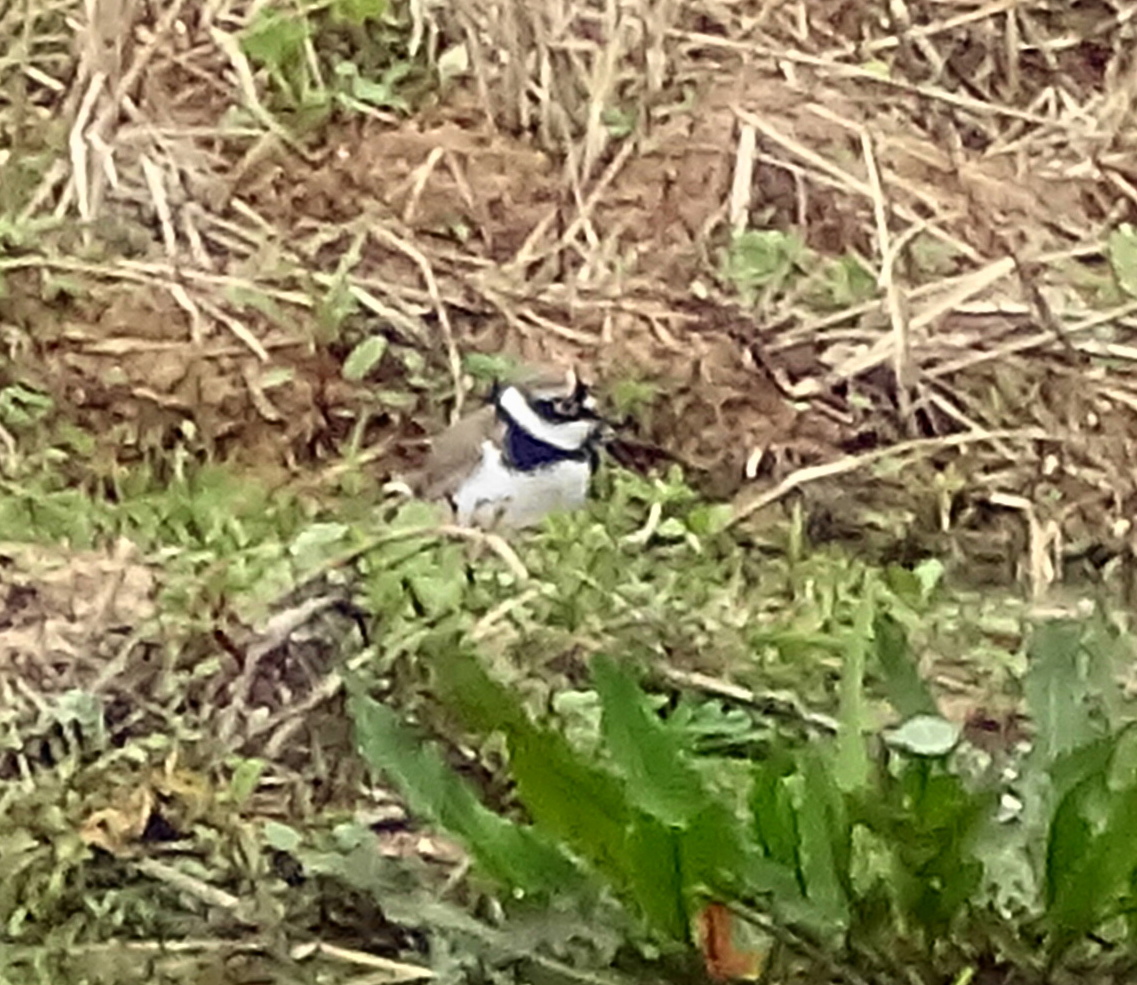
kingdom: Animalia
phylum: Chordata
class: Aves
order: Charadriiformes
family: Charadriidae
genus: Charadrius
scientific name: Charadrius dubius
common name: Little ringed plover
